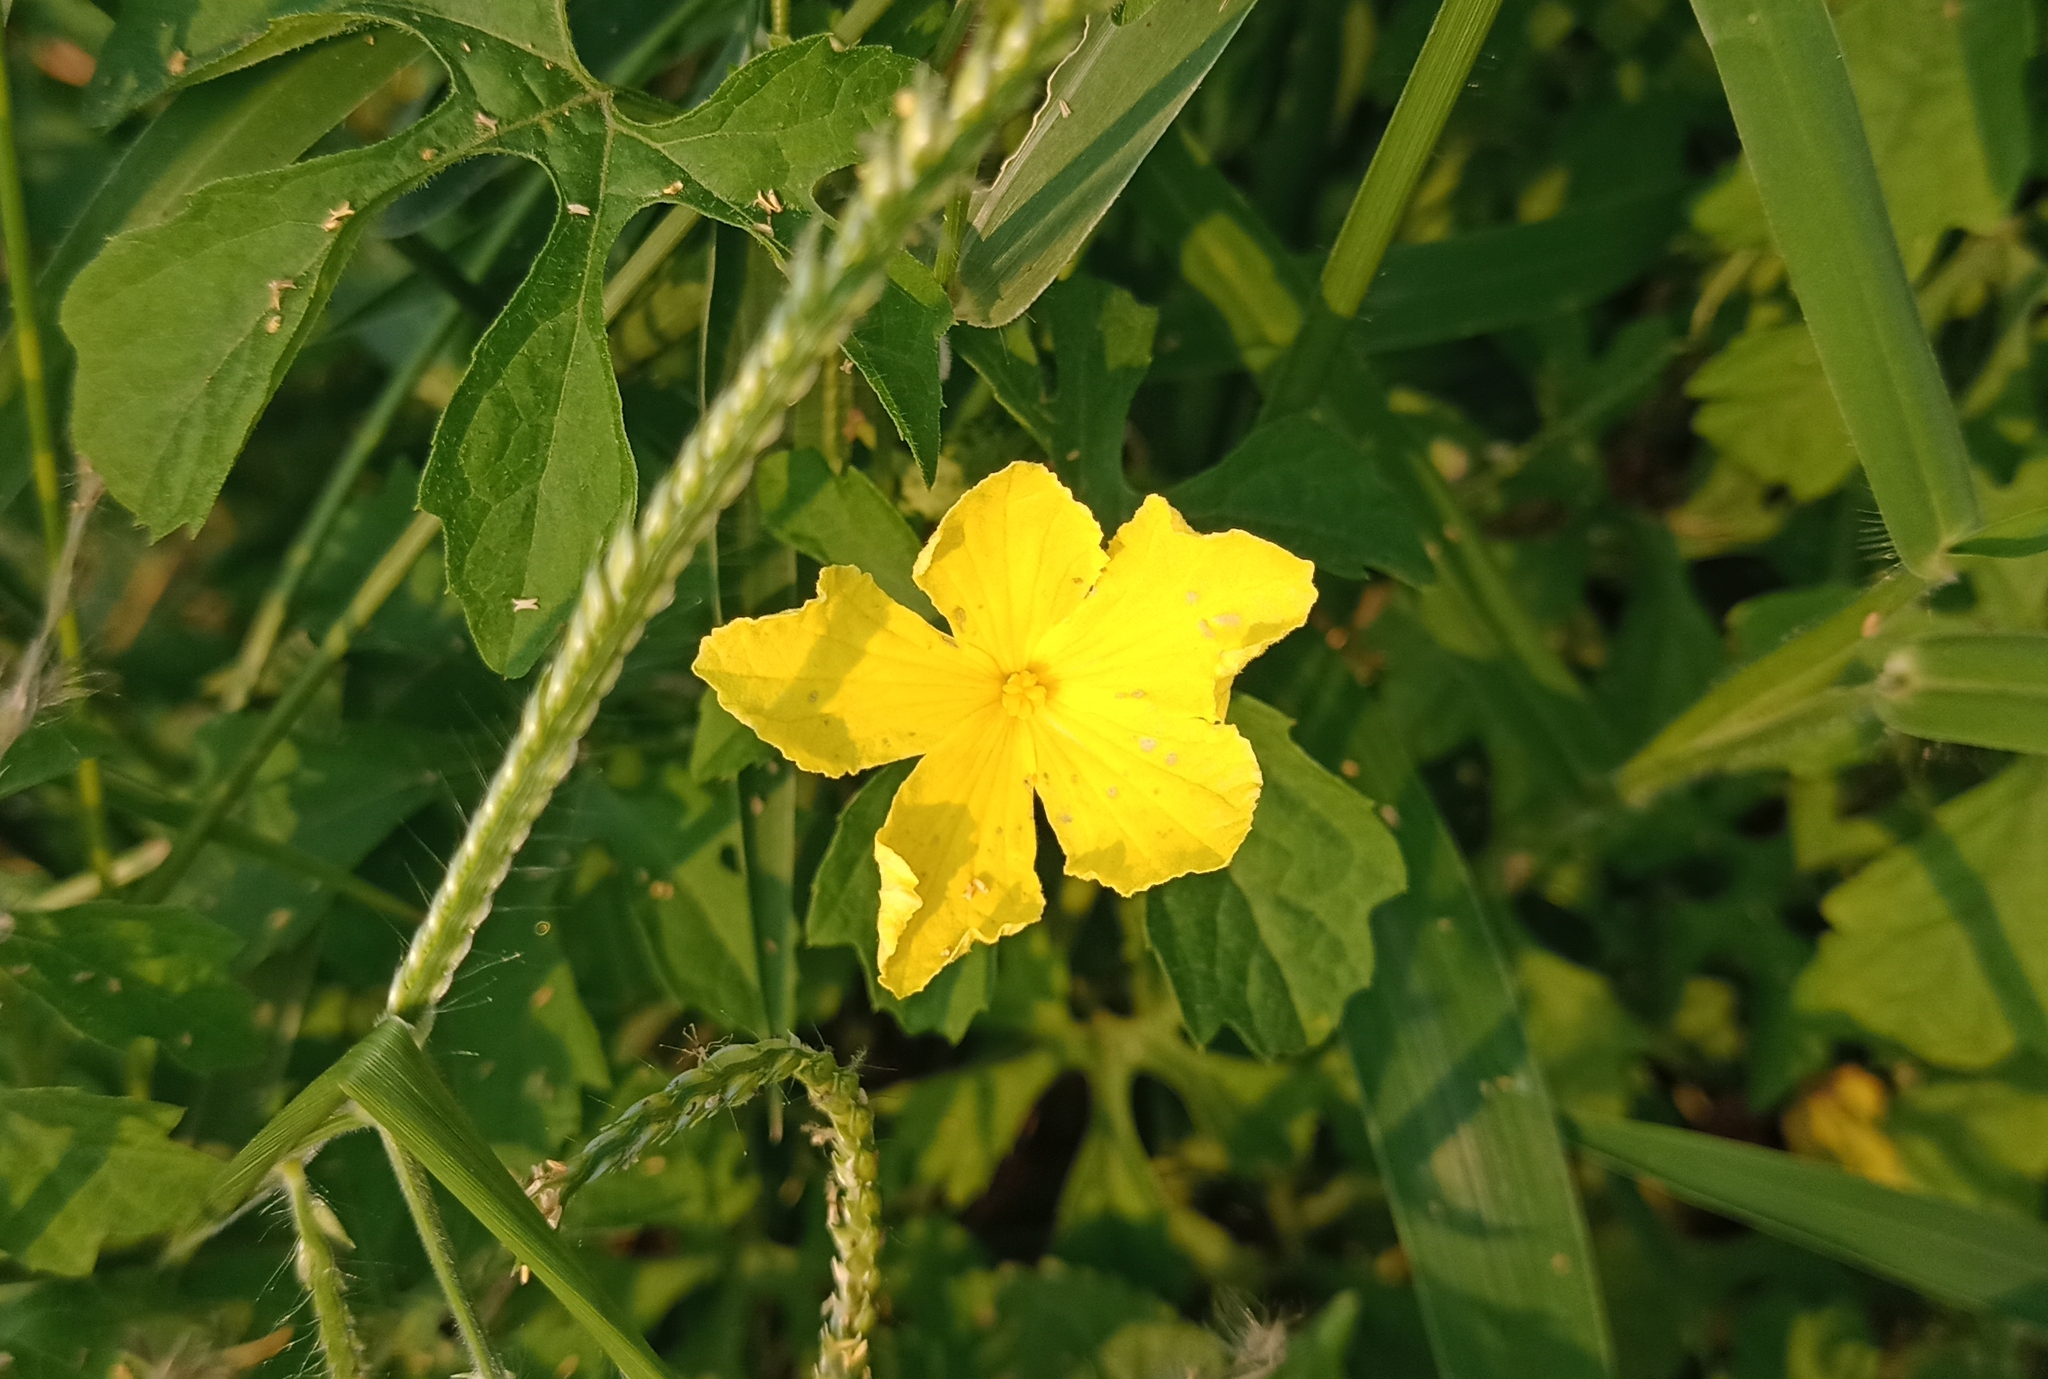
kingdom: Plantae
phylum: Tracheophyta
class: Magnoliopsida
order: Cucurbitales
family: Cucurbitaceae
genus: Momordica
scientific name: Momordica charantia
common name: Balsampear
